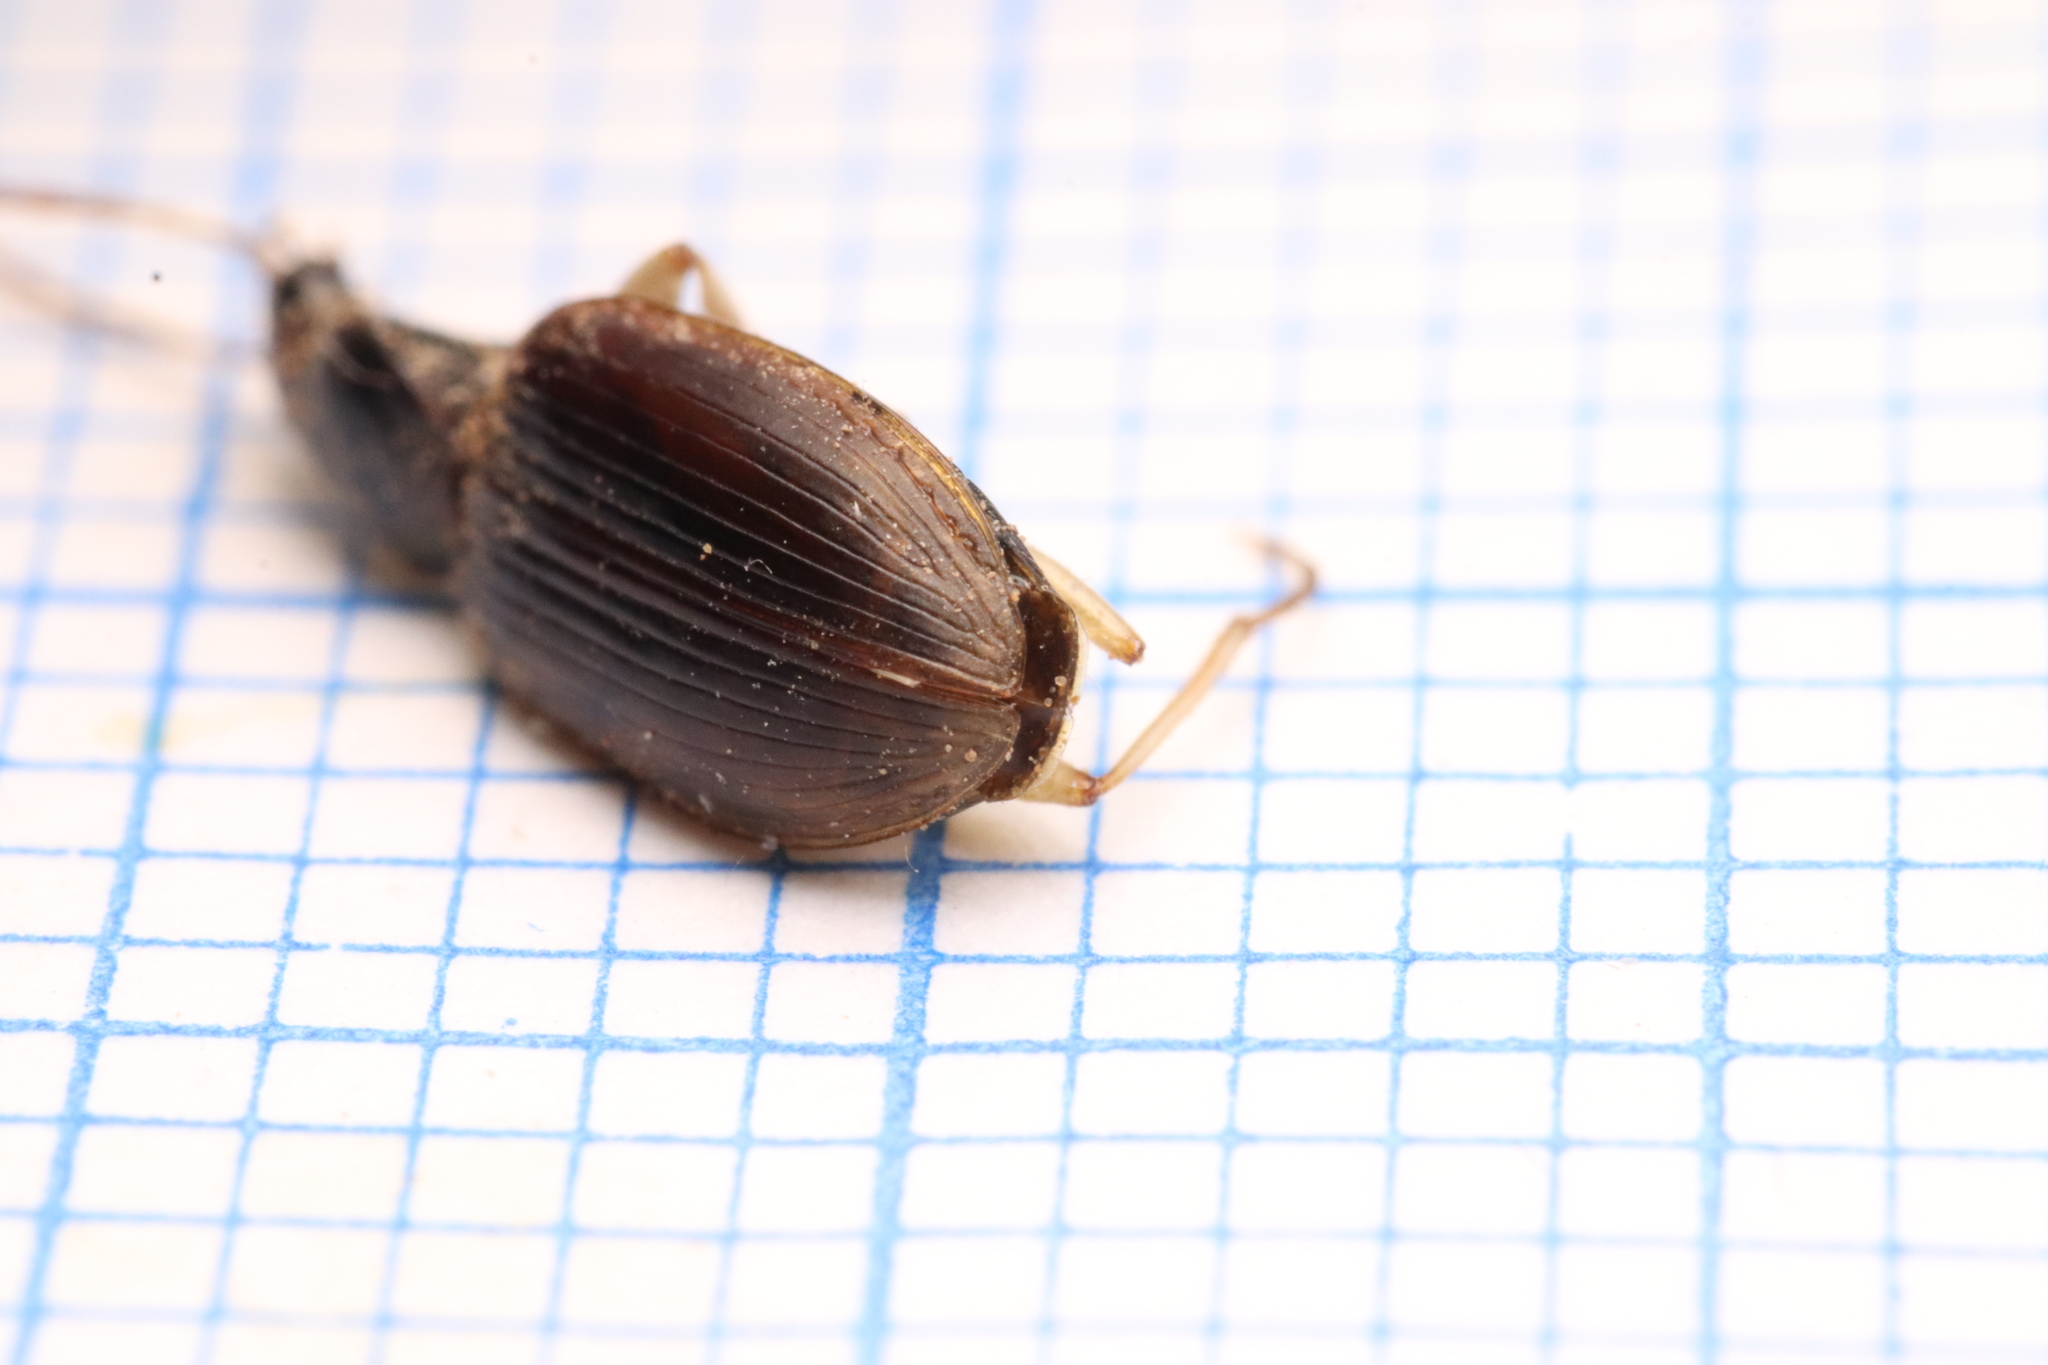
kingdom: Animalia
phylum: Arthropoda
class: Insecta
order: Coleoptera
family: Carabidae
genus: Paranchus
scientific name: Paranchus albipes
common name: White-legged harp ground beetle
